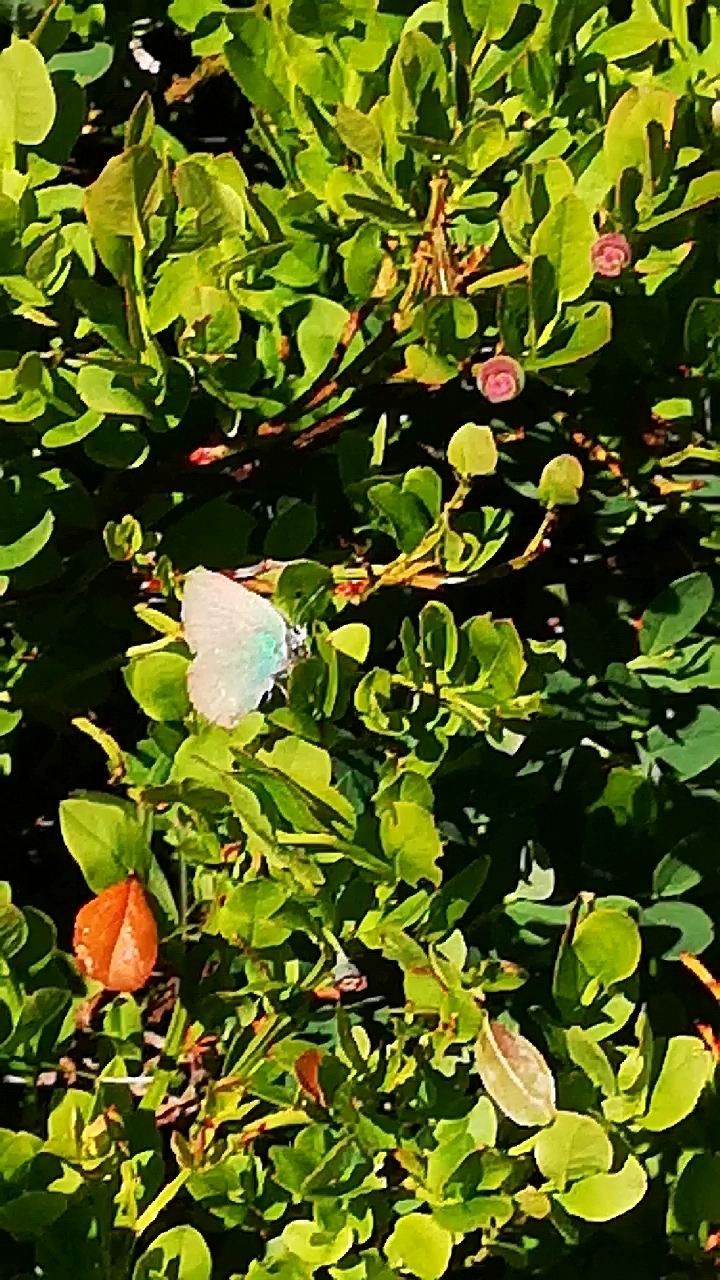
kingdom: Animalia
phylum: Arthropoda
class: Insecta
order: Lepidoptera
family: Lycaenidae
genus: Callophrys
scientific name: Callophrys rubi
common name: Green hairstreak
